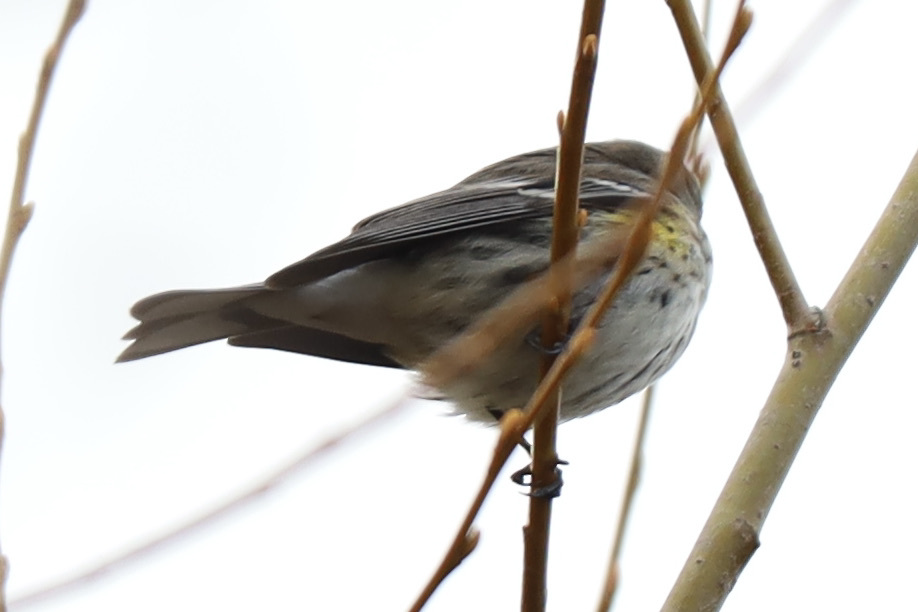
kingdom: Animalia
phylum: Chordata
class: Aves
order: Passeriformes
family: Parulidae
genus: Setophaga
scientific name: Setophaga coronata
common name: Myrtle warbler
